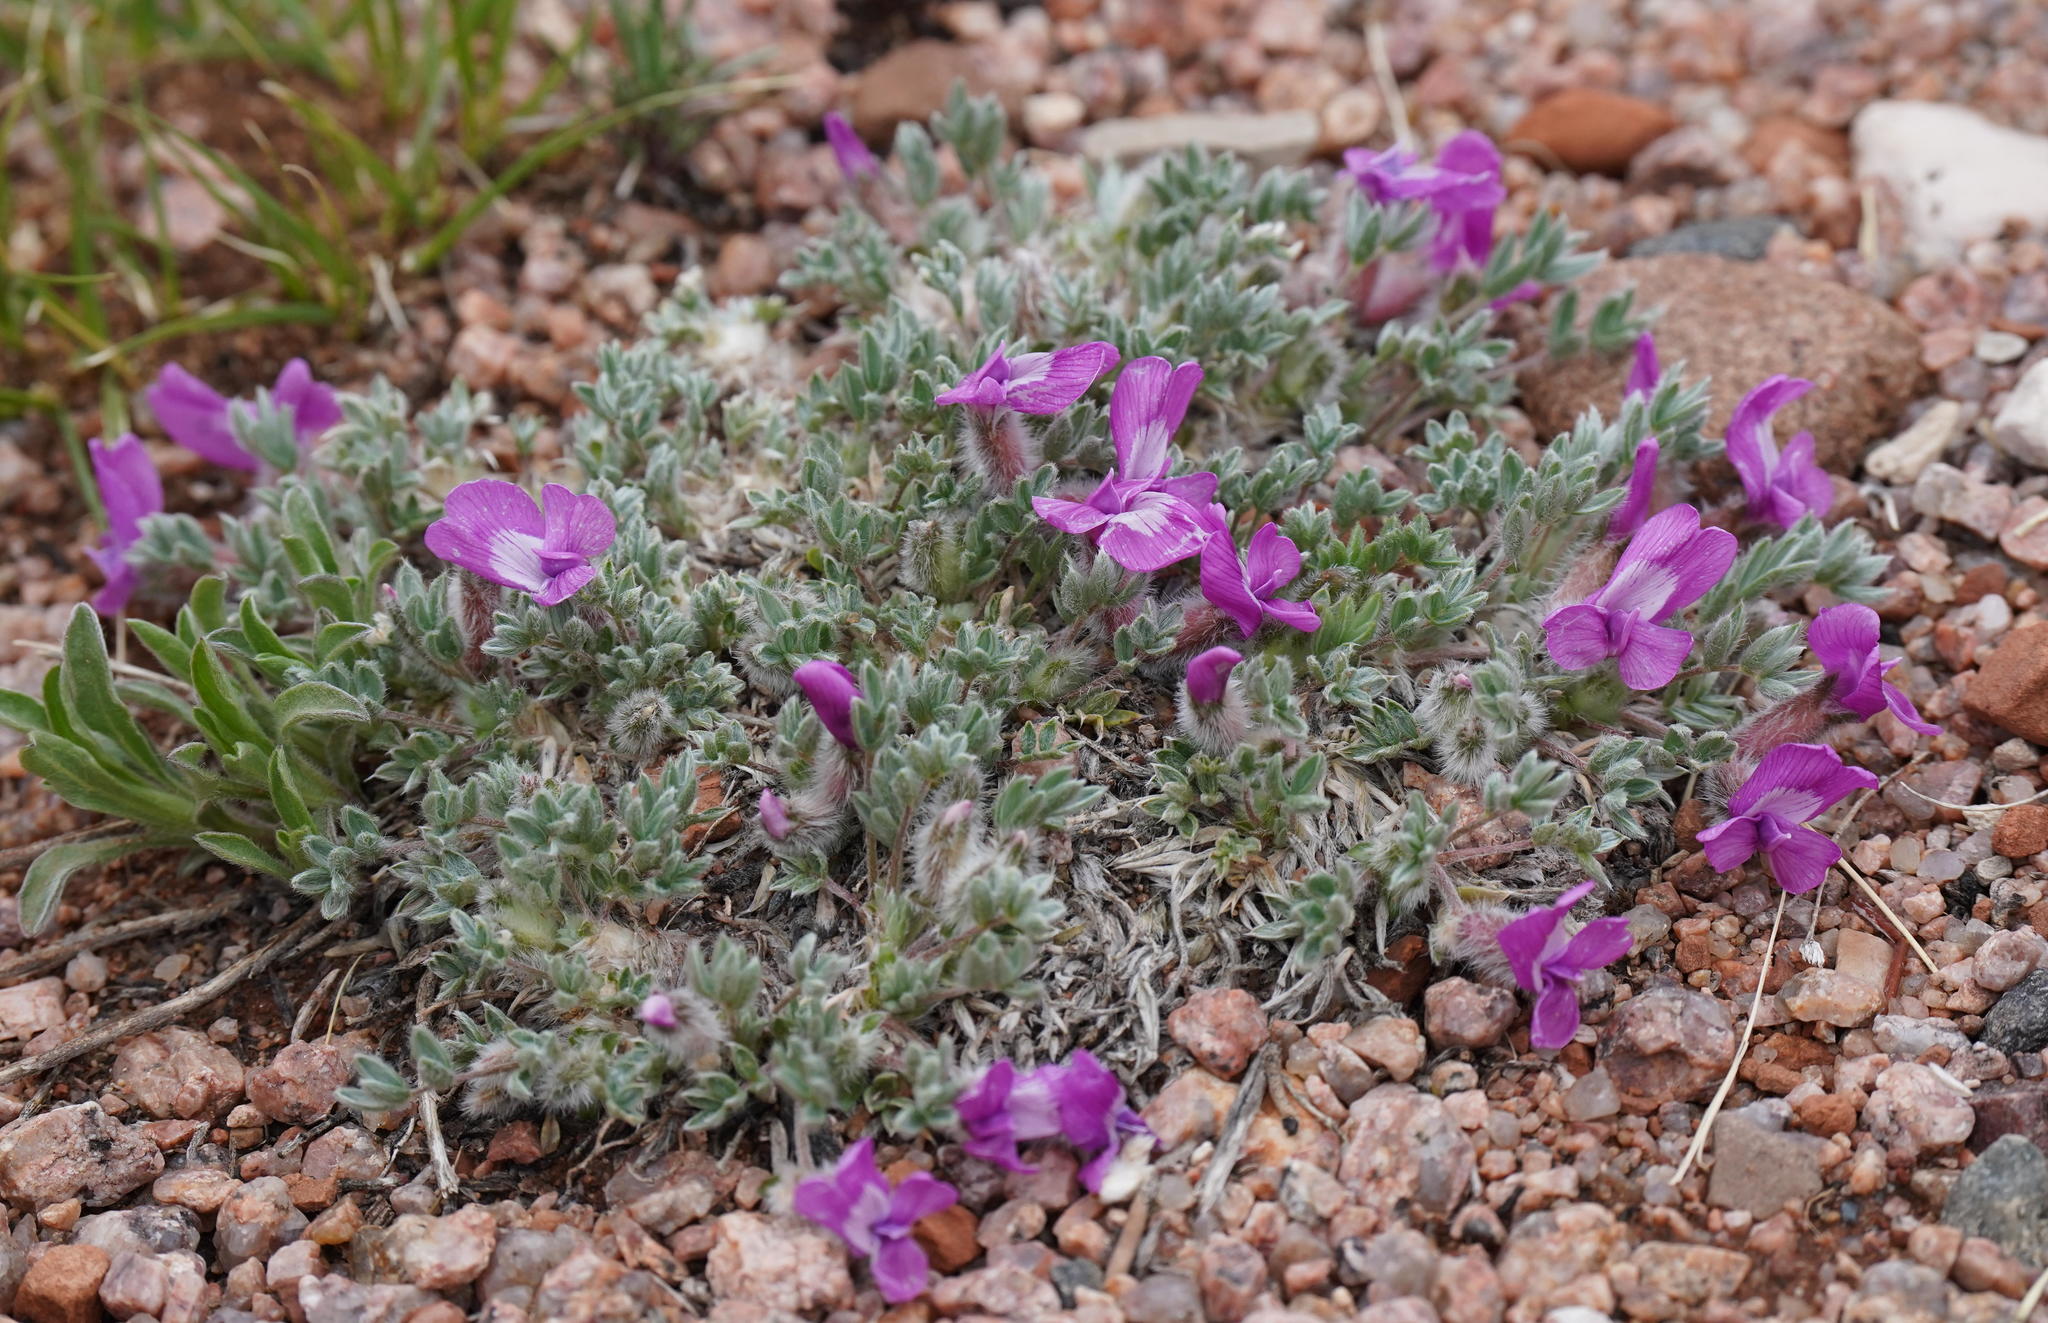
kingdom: Plantae
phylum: Tracheophyta
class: Magnoliopsida
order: Fabales
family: Fabaceae
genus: Oxytropis
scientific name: Oxytropis multiceps
